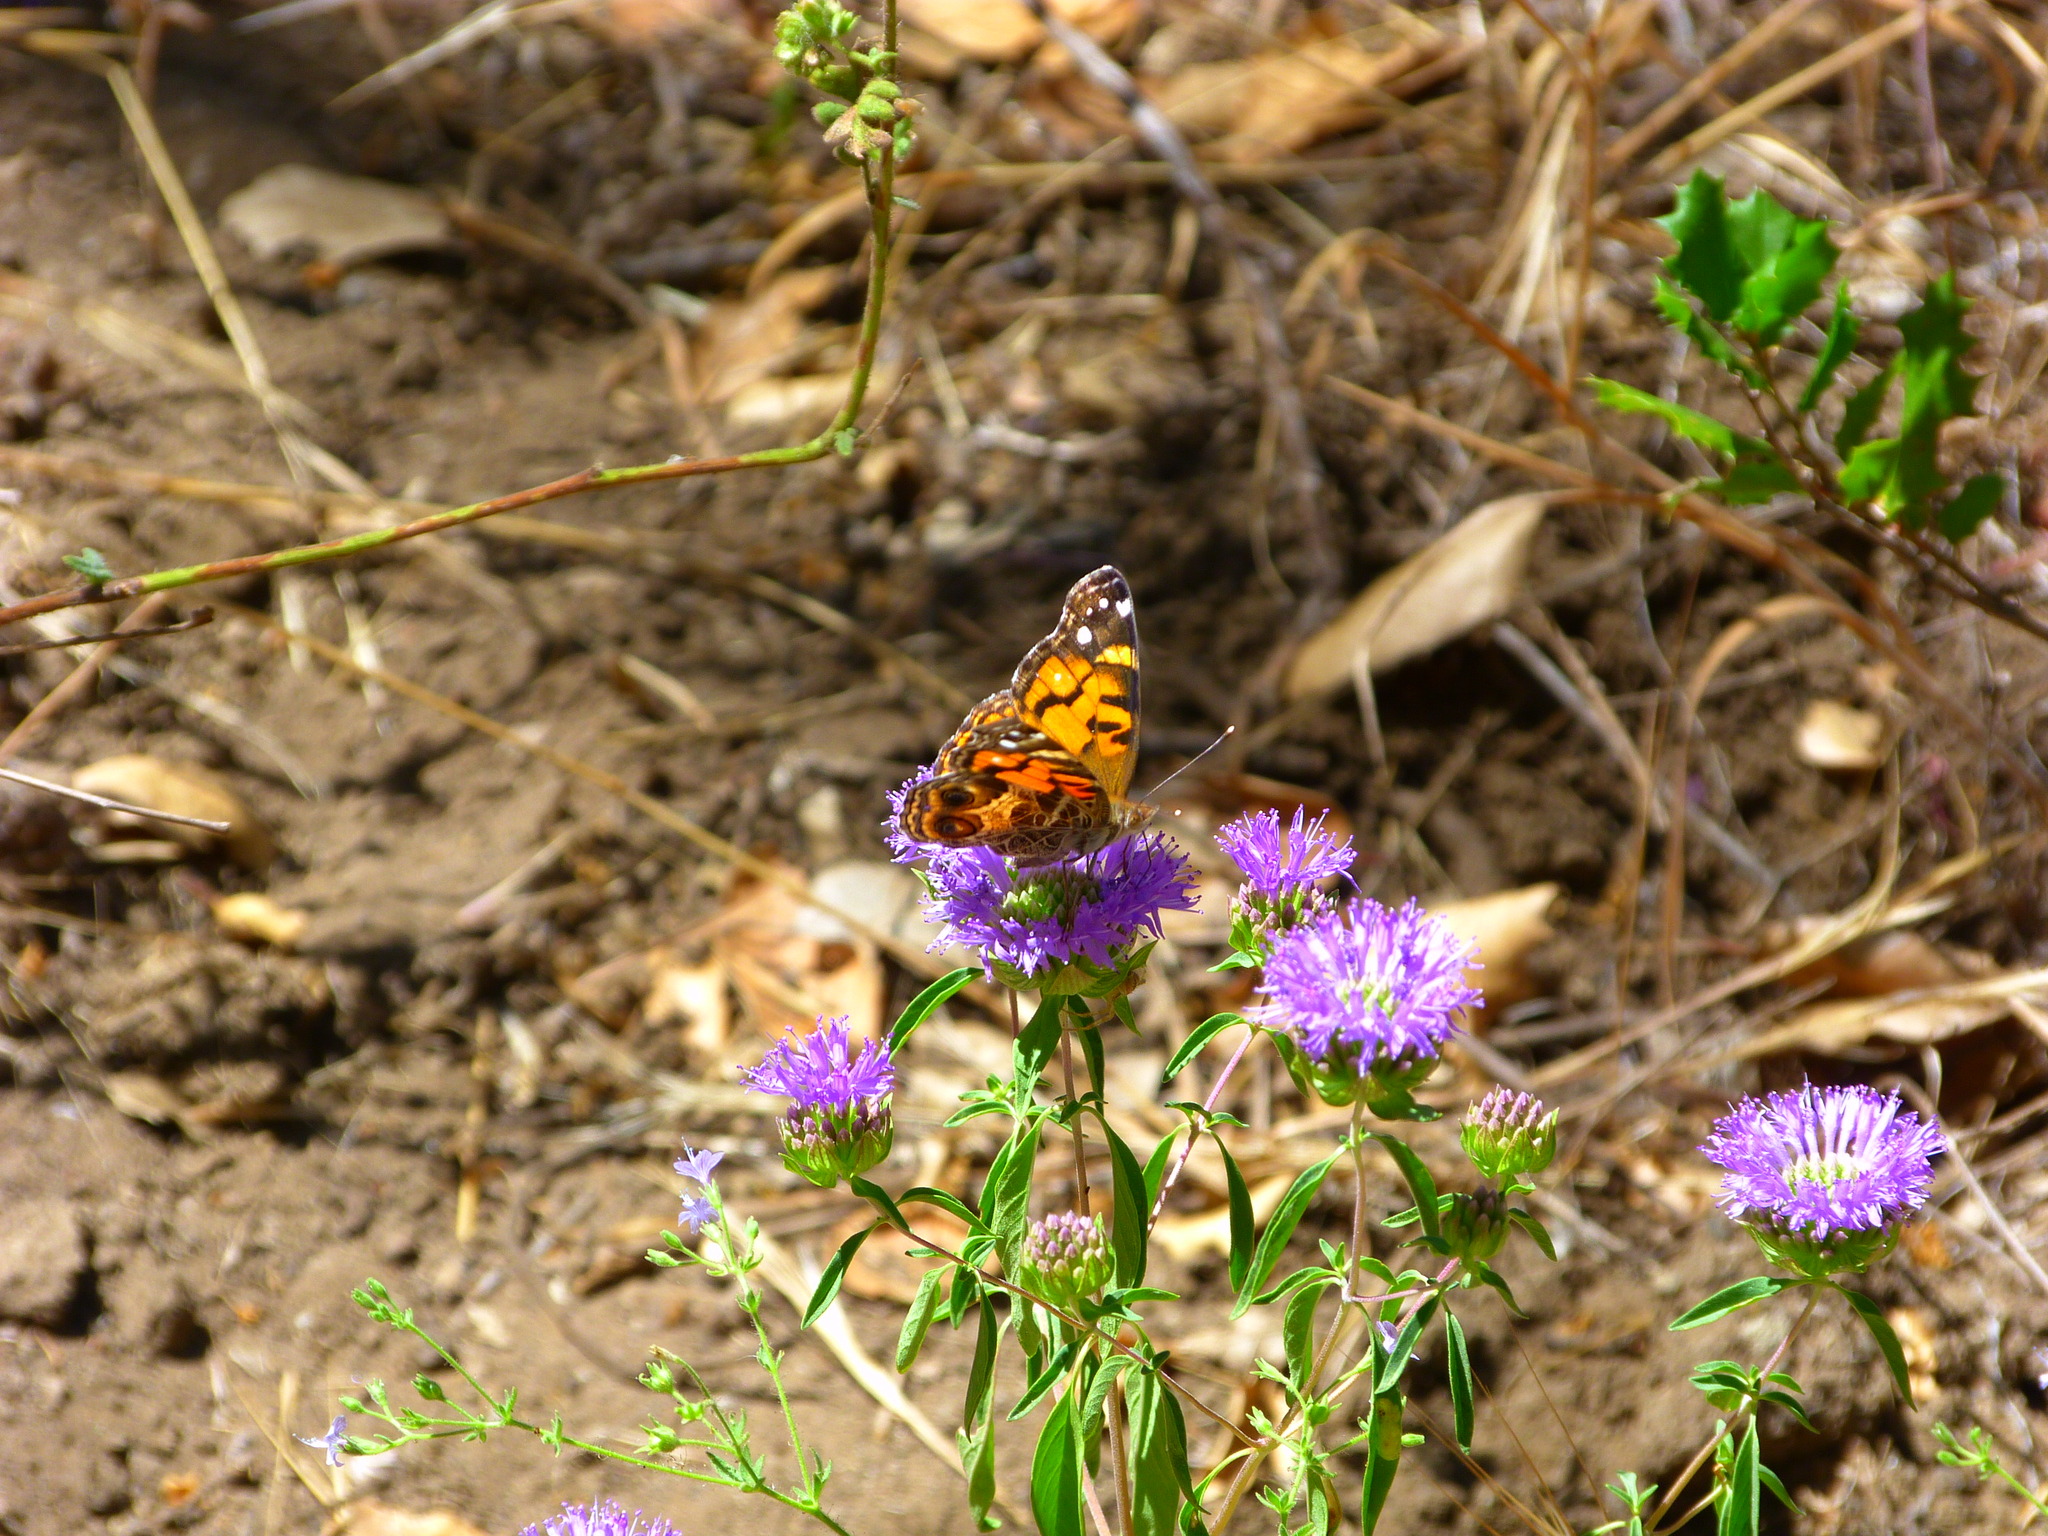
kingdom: Animalia
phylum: Arthropoda
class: Insecta
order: Lepidoptera
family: Nymphalidae
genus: Vanessa
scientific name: Vanessa virginiensis
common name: American lady
